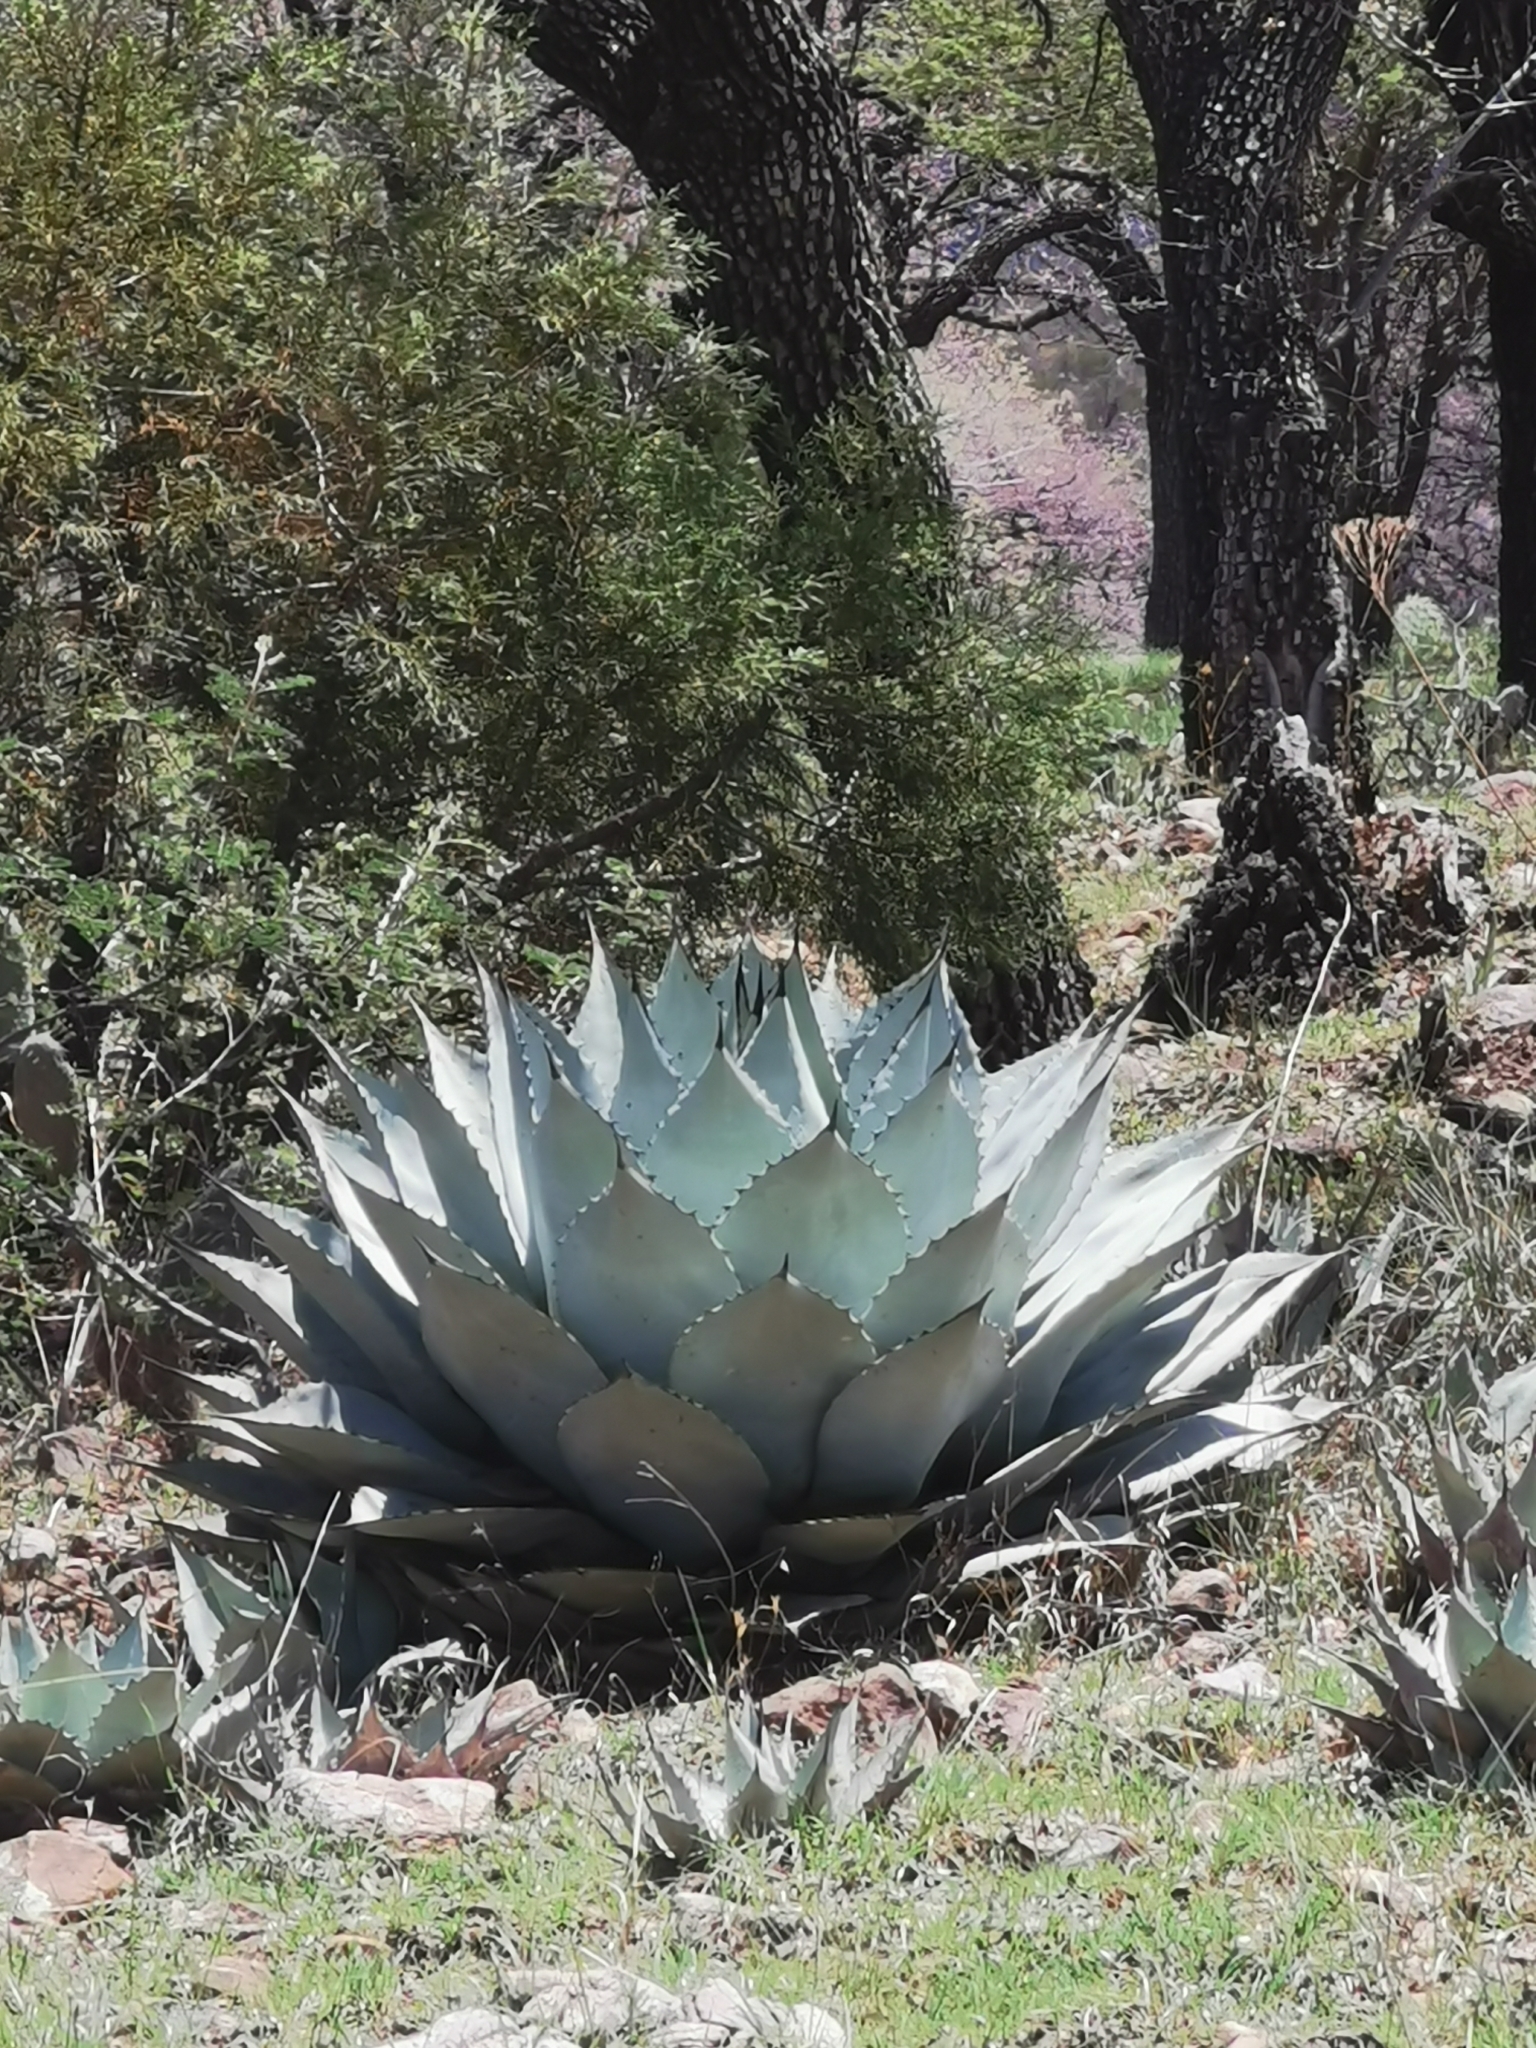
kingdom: Plantae
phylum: Tracheophyta
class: Liliopsida
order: Asparagales
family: Asparagaceae
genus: Agave
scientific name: Agave parryi
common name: Parry's agave
